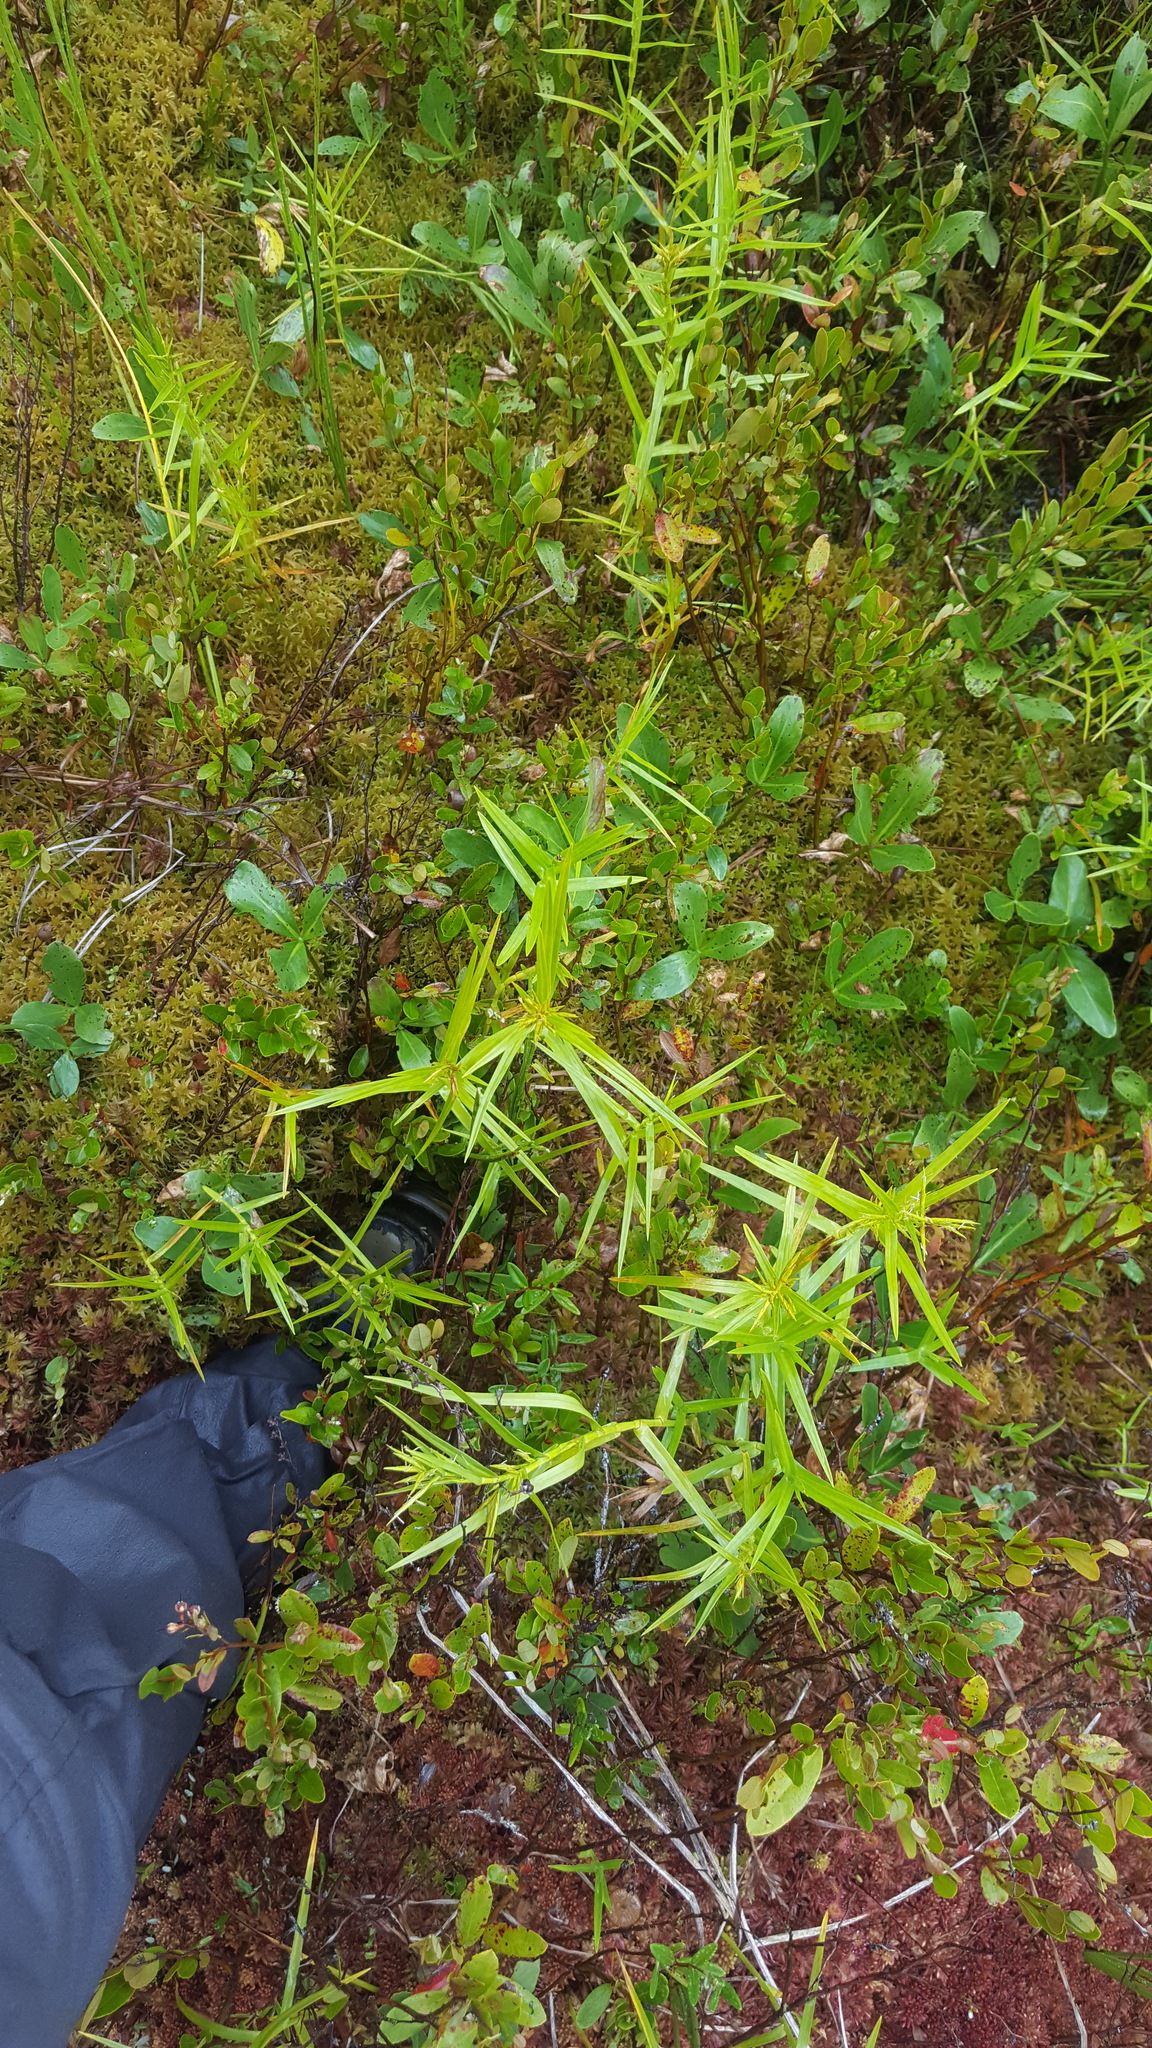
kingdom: Plantae
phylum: Tracheophyta
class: Liliopsida
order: Poales
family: Cyperaceae
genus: Dulichium
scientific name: Dulichium arundinaceum
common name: Three-way sedge
